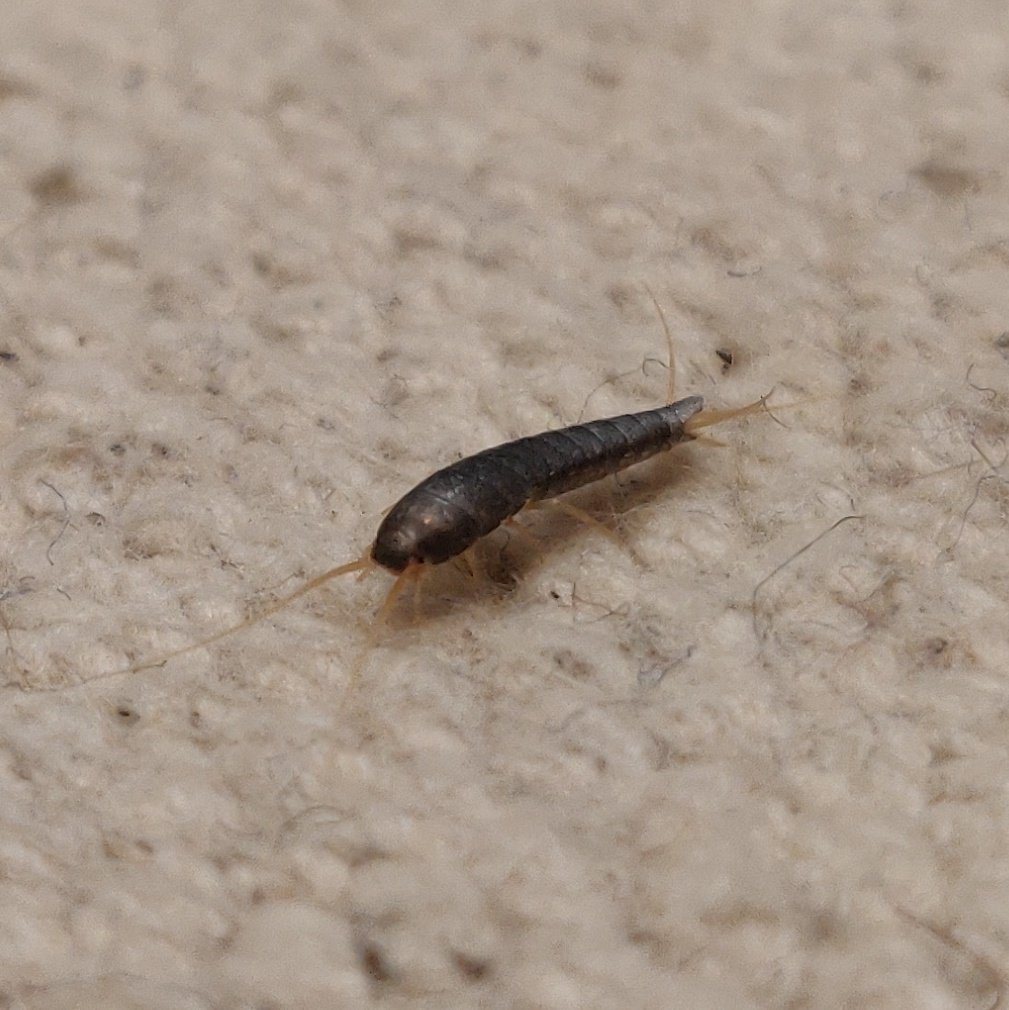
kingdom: Animalia
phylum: Arthropoda
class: Insecta
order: Zygentoma
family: Lepismatidae
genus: Lepisma
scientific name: Lepisma saccharinum
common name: Silverfish
